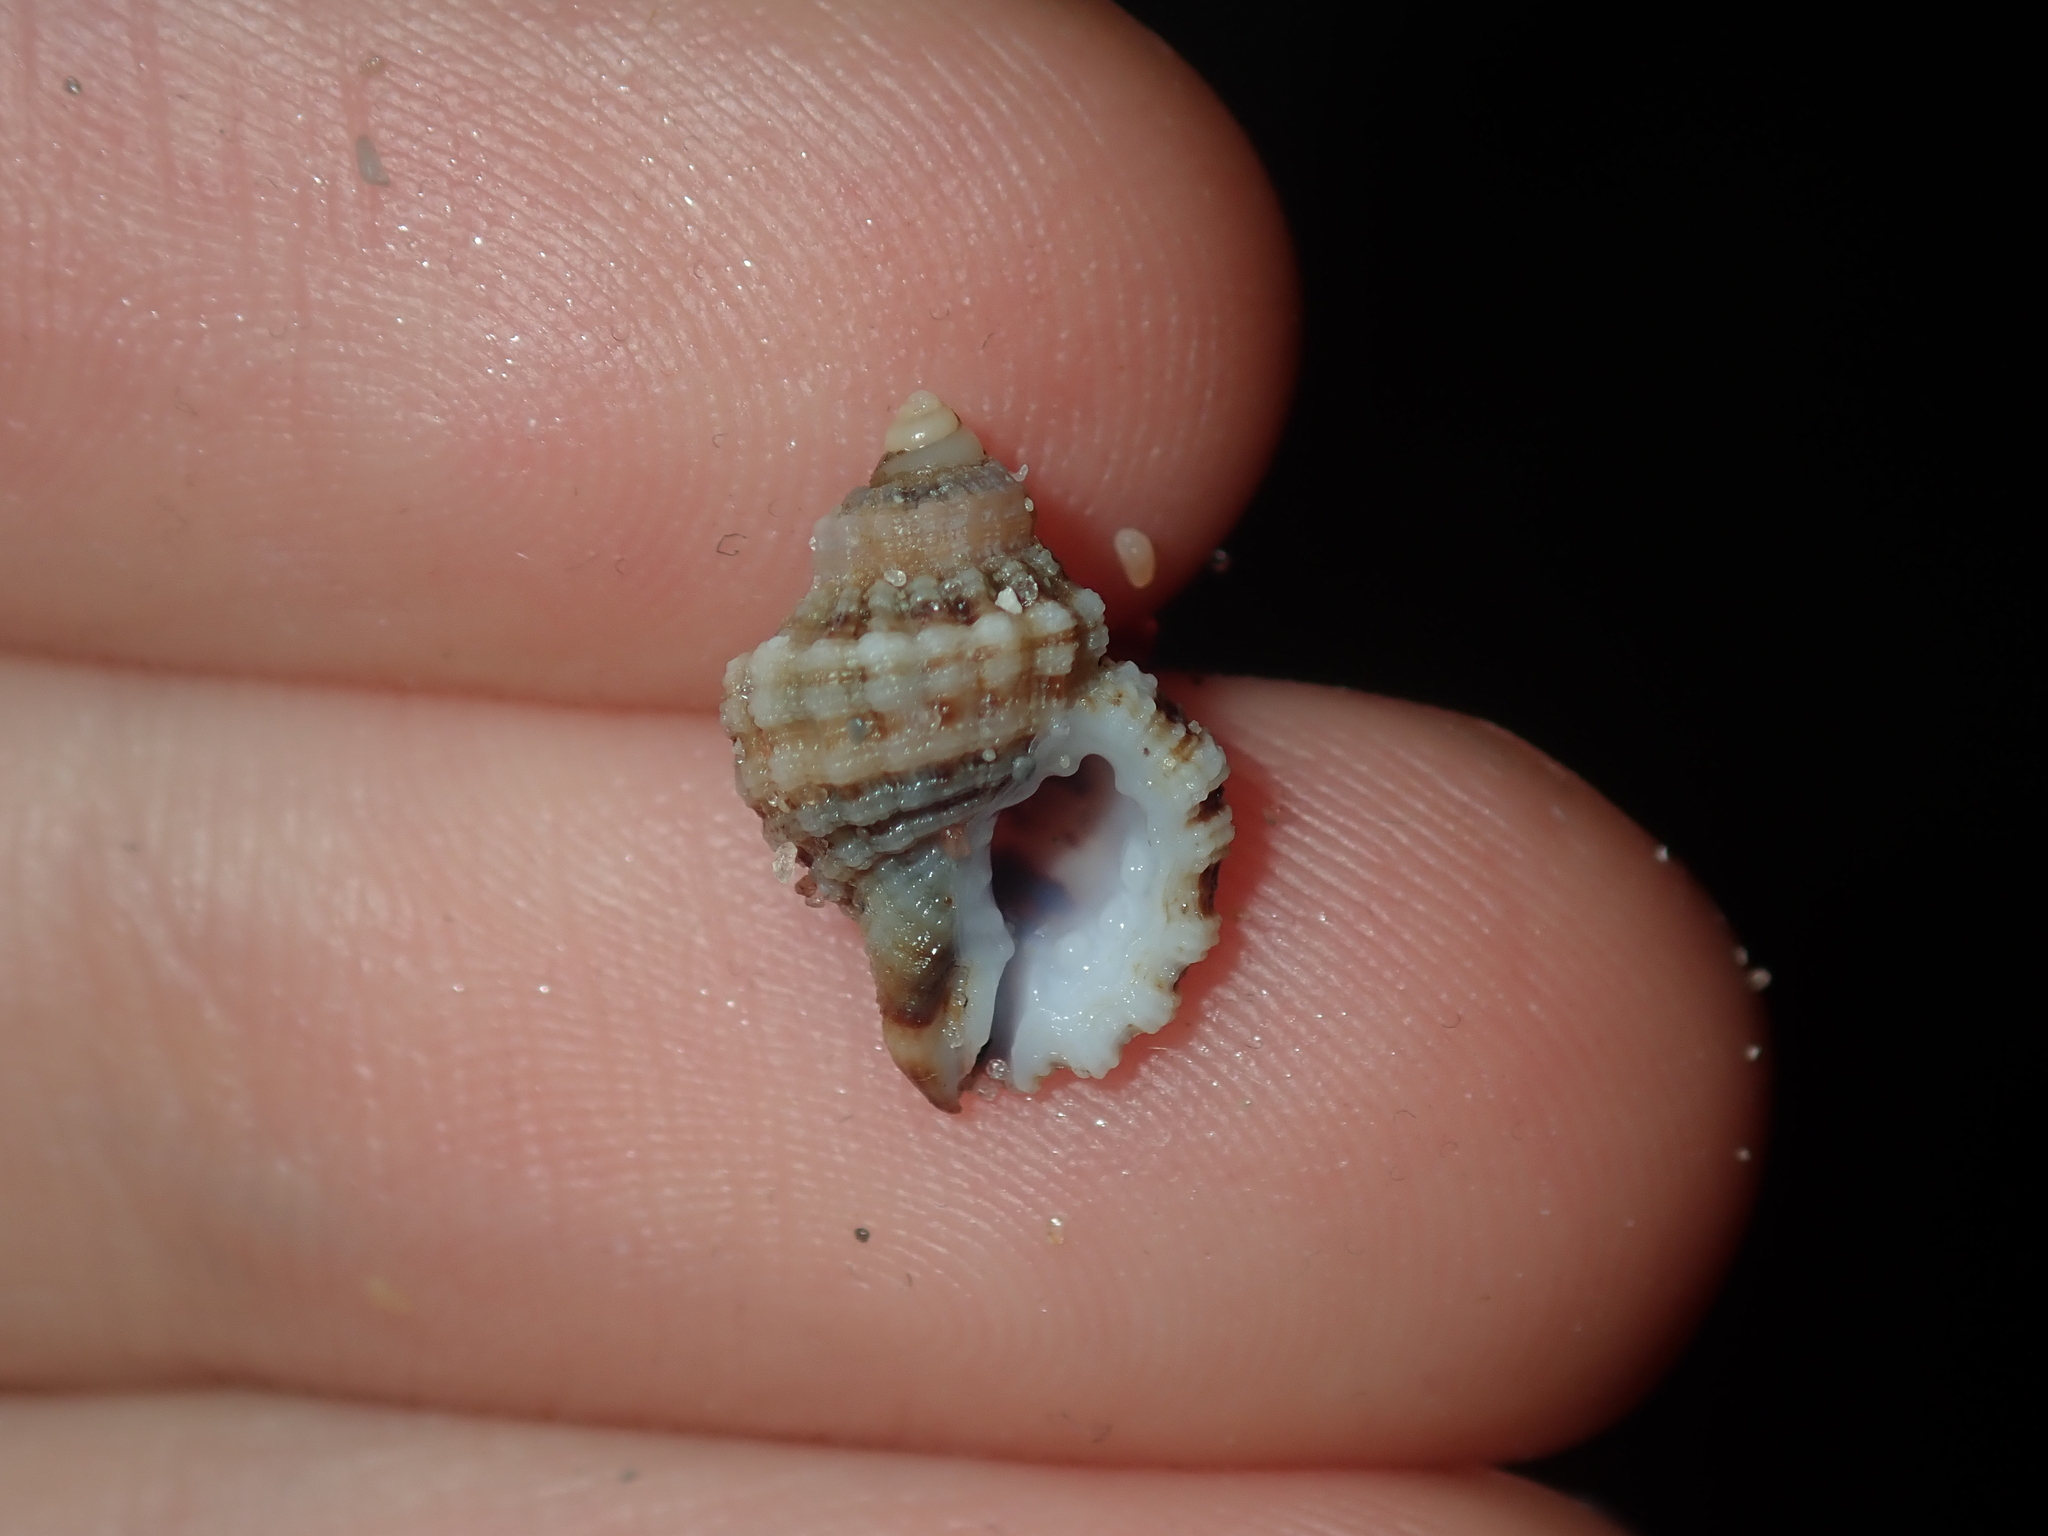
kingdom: Animalia
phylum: Mollusca
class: Gastropoda
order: Littorinimorpha
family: Cymatiidae
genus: Turritriton
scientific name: Turritriton labiosus
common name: Lip triton
